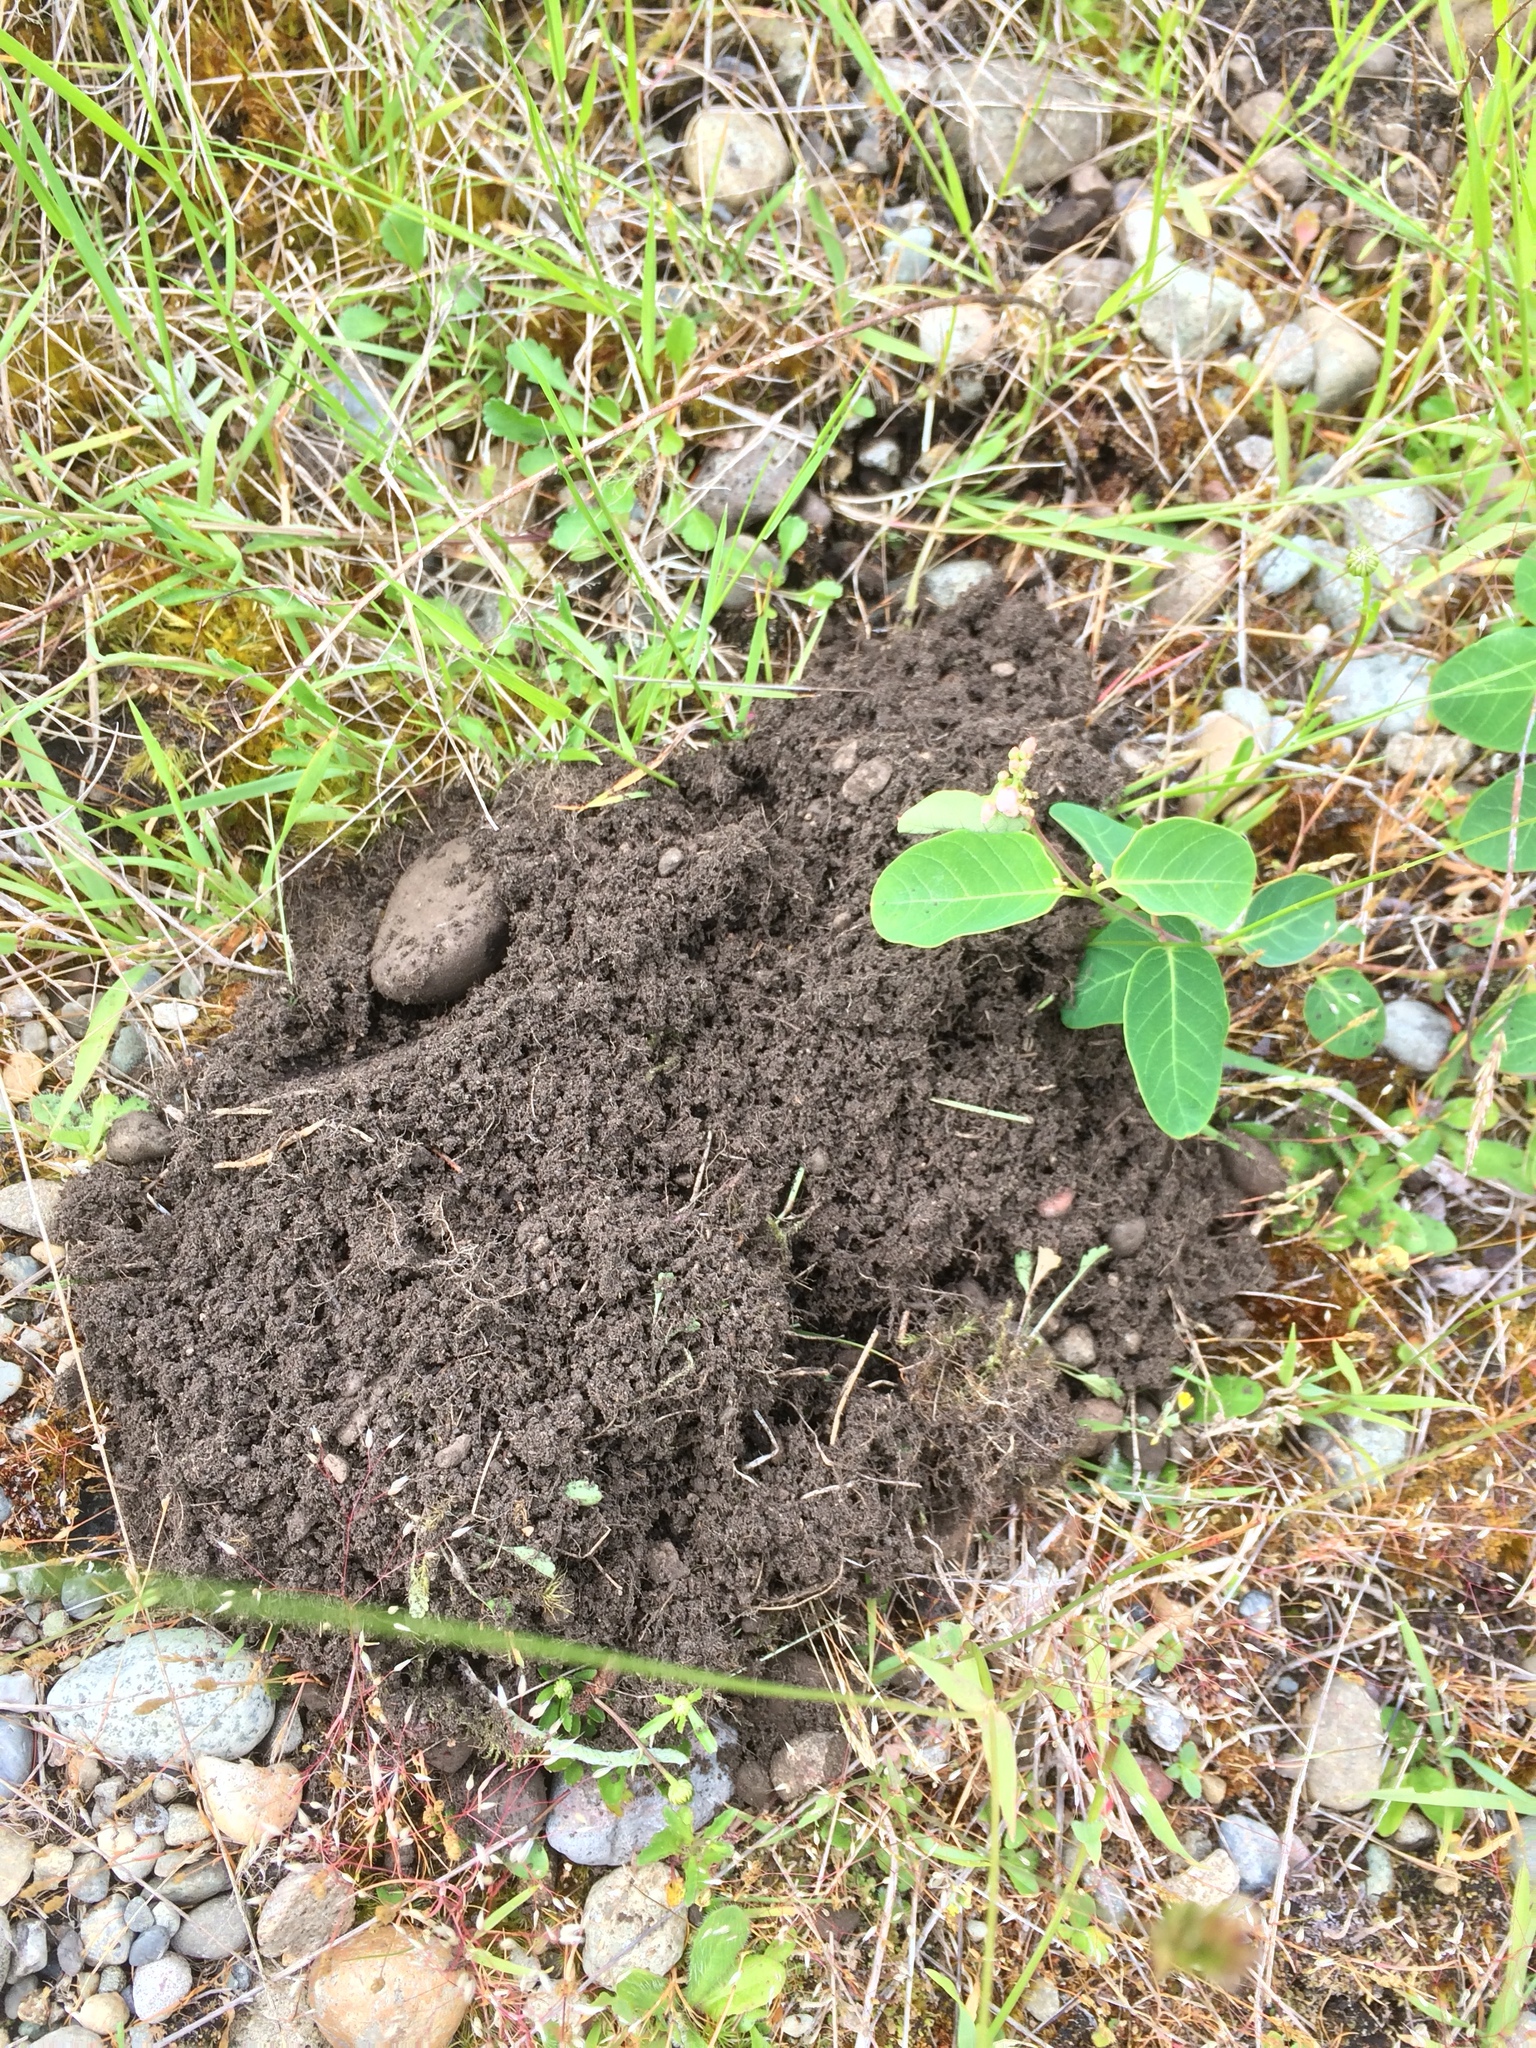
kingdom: Animalia
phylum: Chordata
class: Mammalia
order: Rodentia
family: Geomyidae
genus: Thomomys
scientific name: Thomomys mazama
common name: Western pocket gopher
